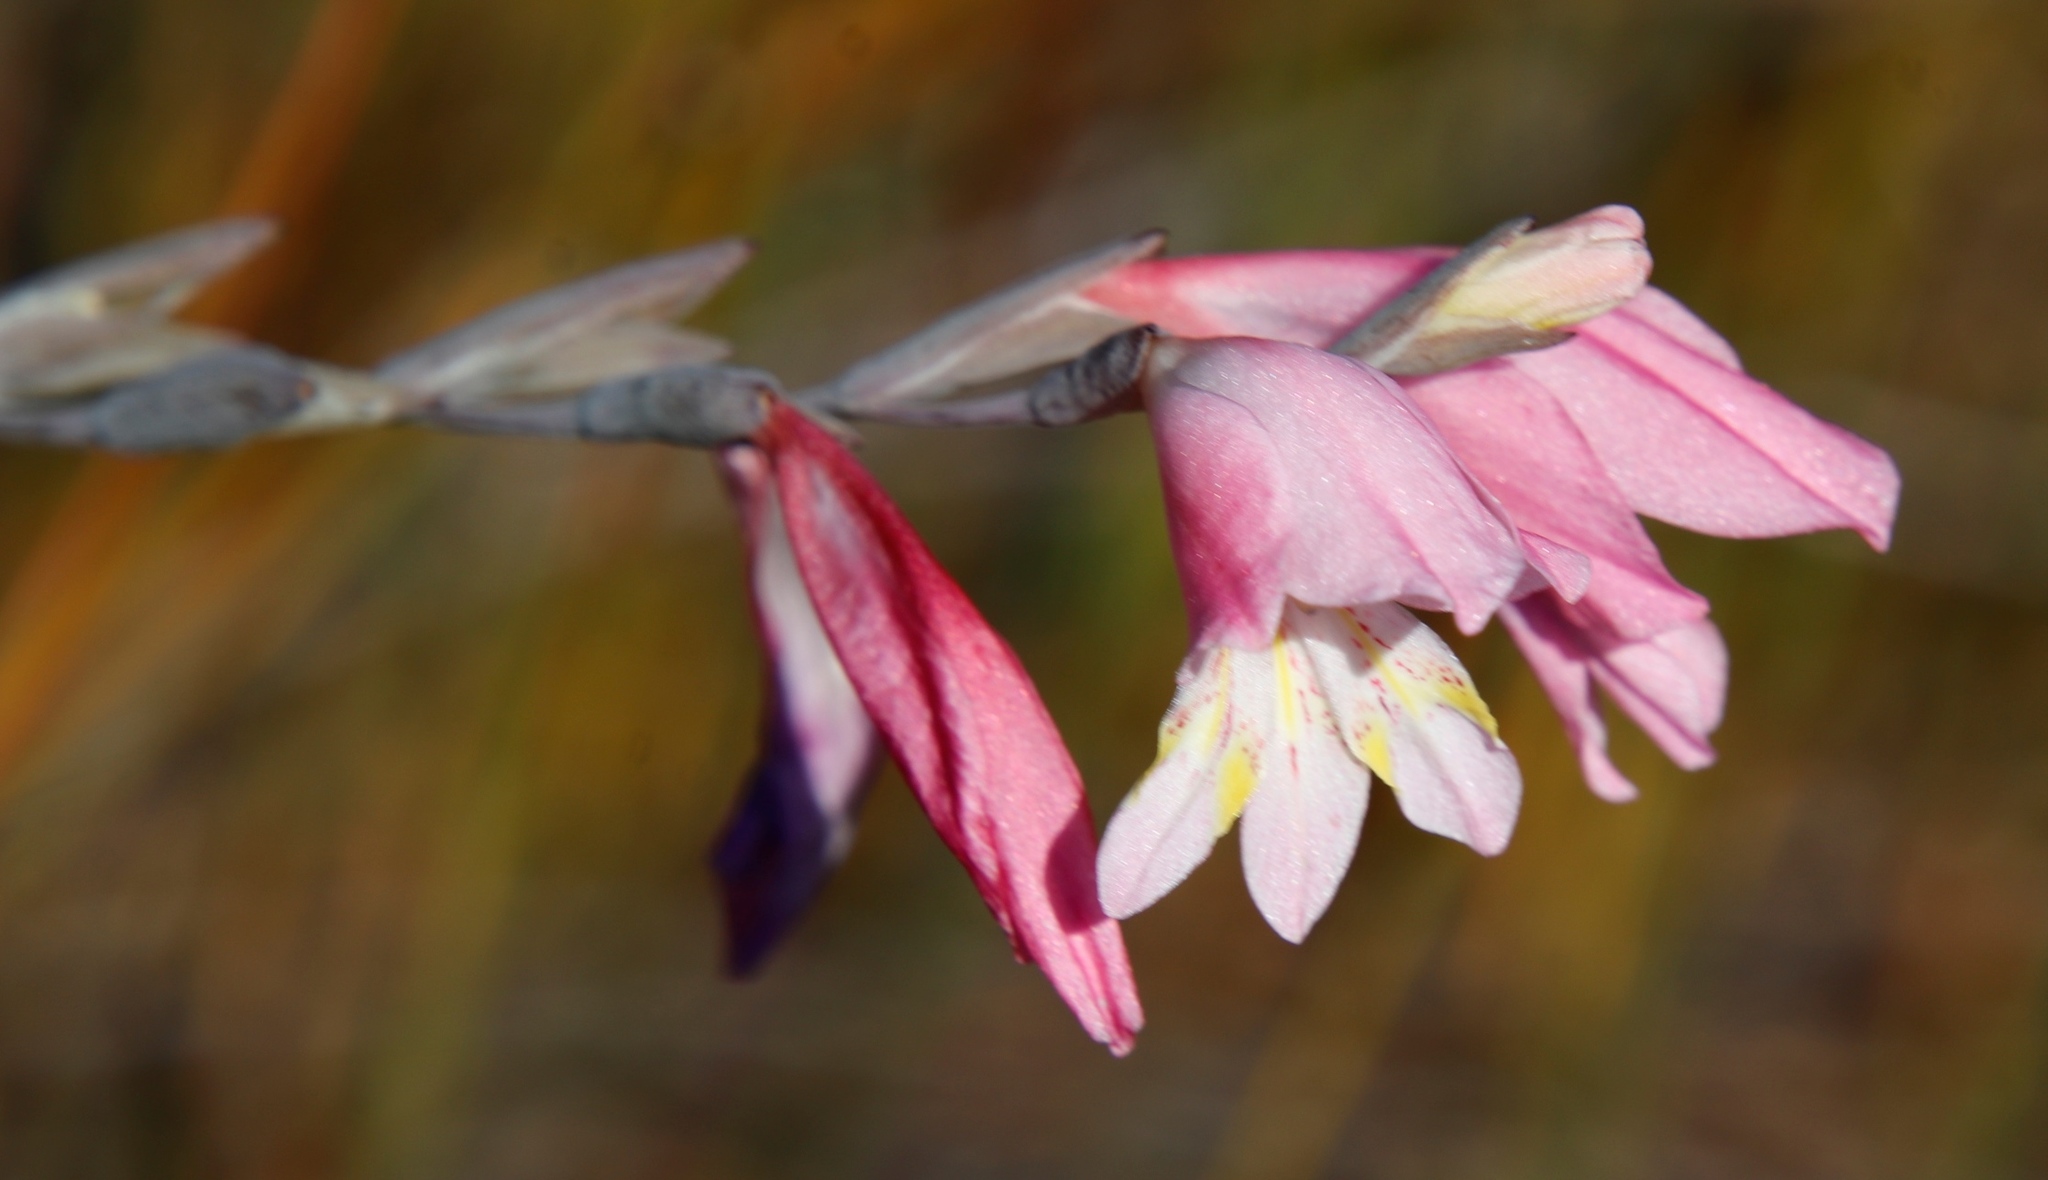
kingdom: Plantae
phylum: Tracheophyta
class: Liliopsida
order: Asparagales
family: Iridaceae
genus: Gladiolus
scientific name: Gladiolus brevifolius
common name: March pypie
